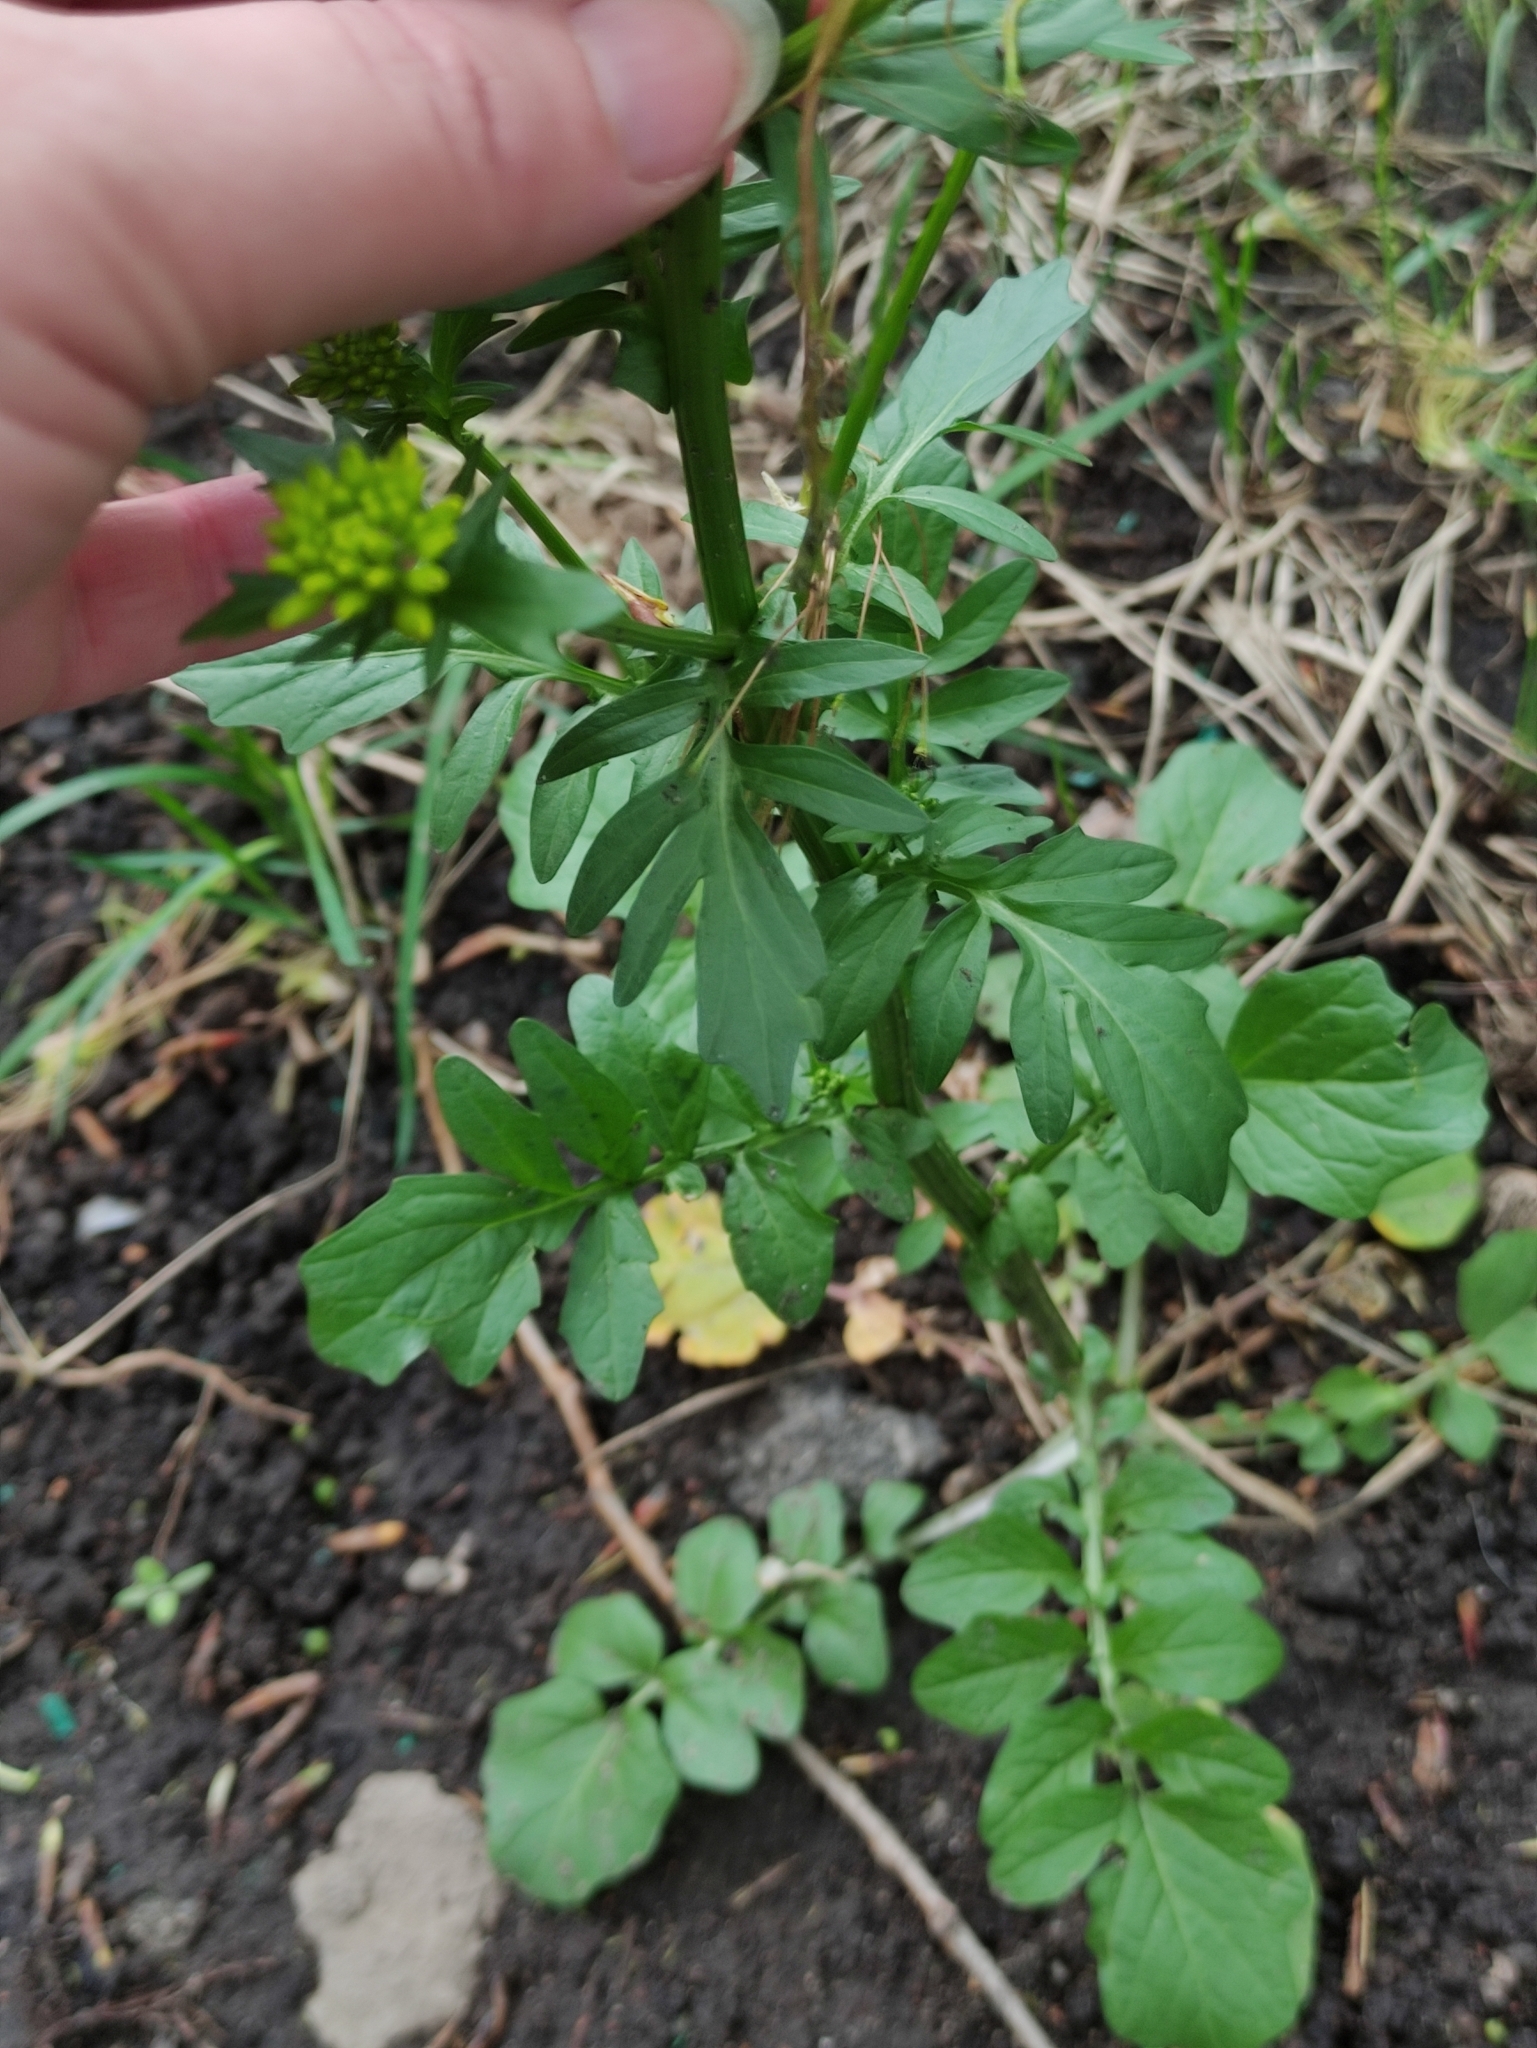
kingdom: Plantae
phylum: Tracheophyta
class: Magnoliopsida
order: Brassicales
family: Brassicaceae
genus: Barbarea
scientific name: Barbarea vulgaris
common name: Cressy-greens
